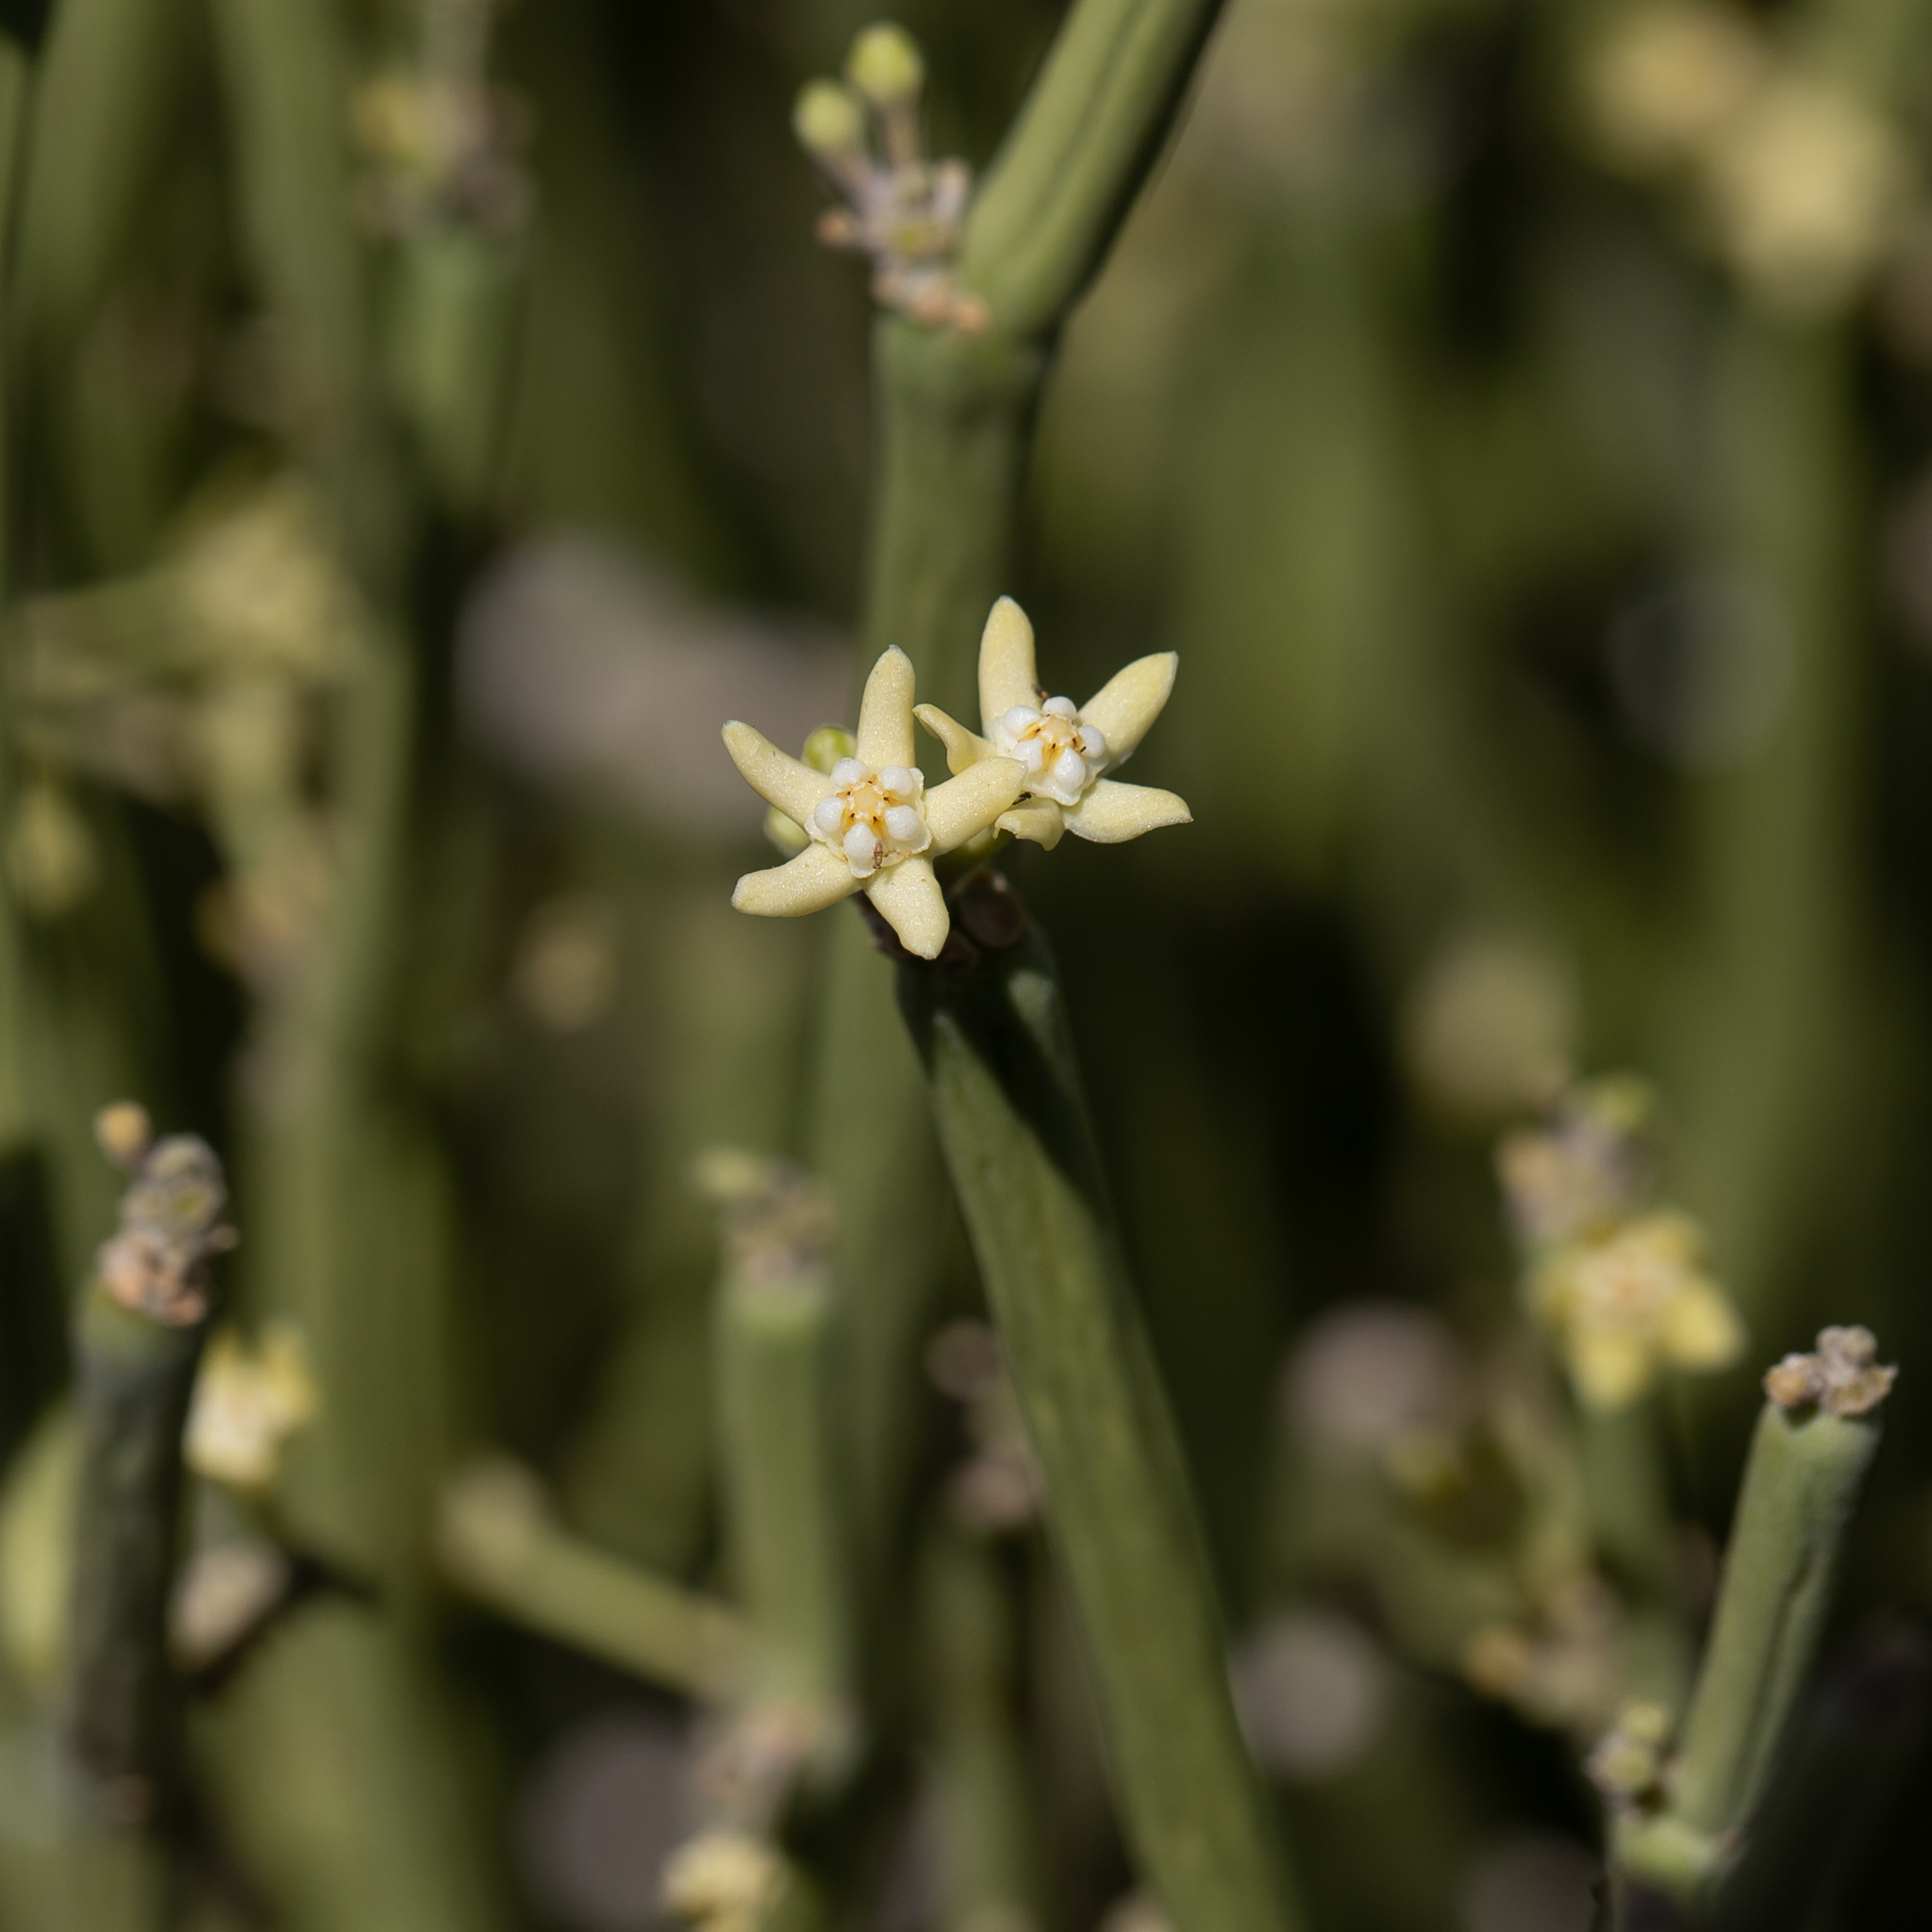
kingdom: Plantae
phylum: Tracheophyta
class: Magnoliopsida
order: Gentianales
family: Apocynaceae
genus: Cynanchum
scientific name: Cynanchum viminale
